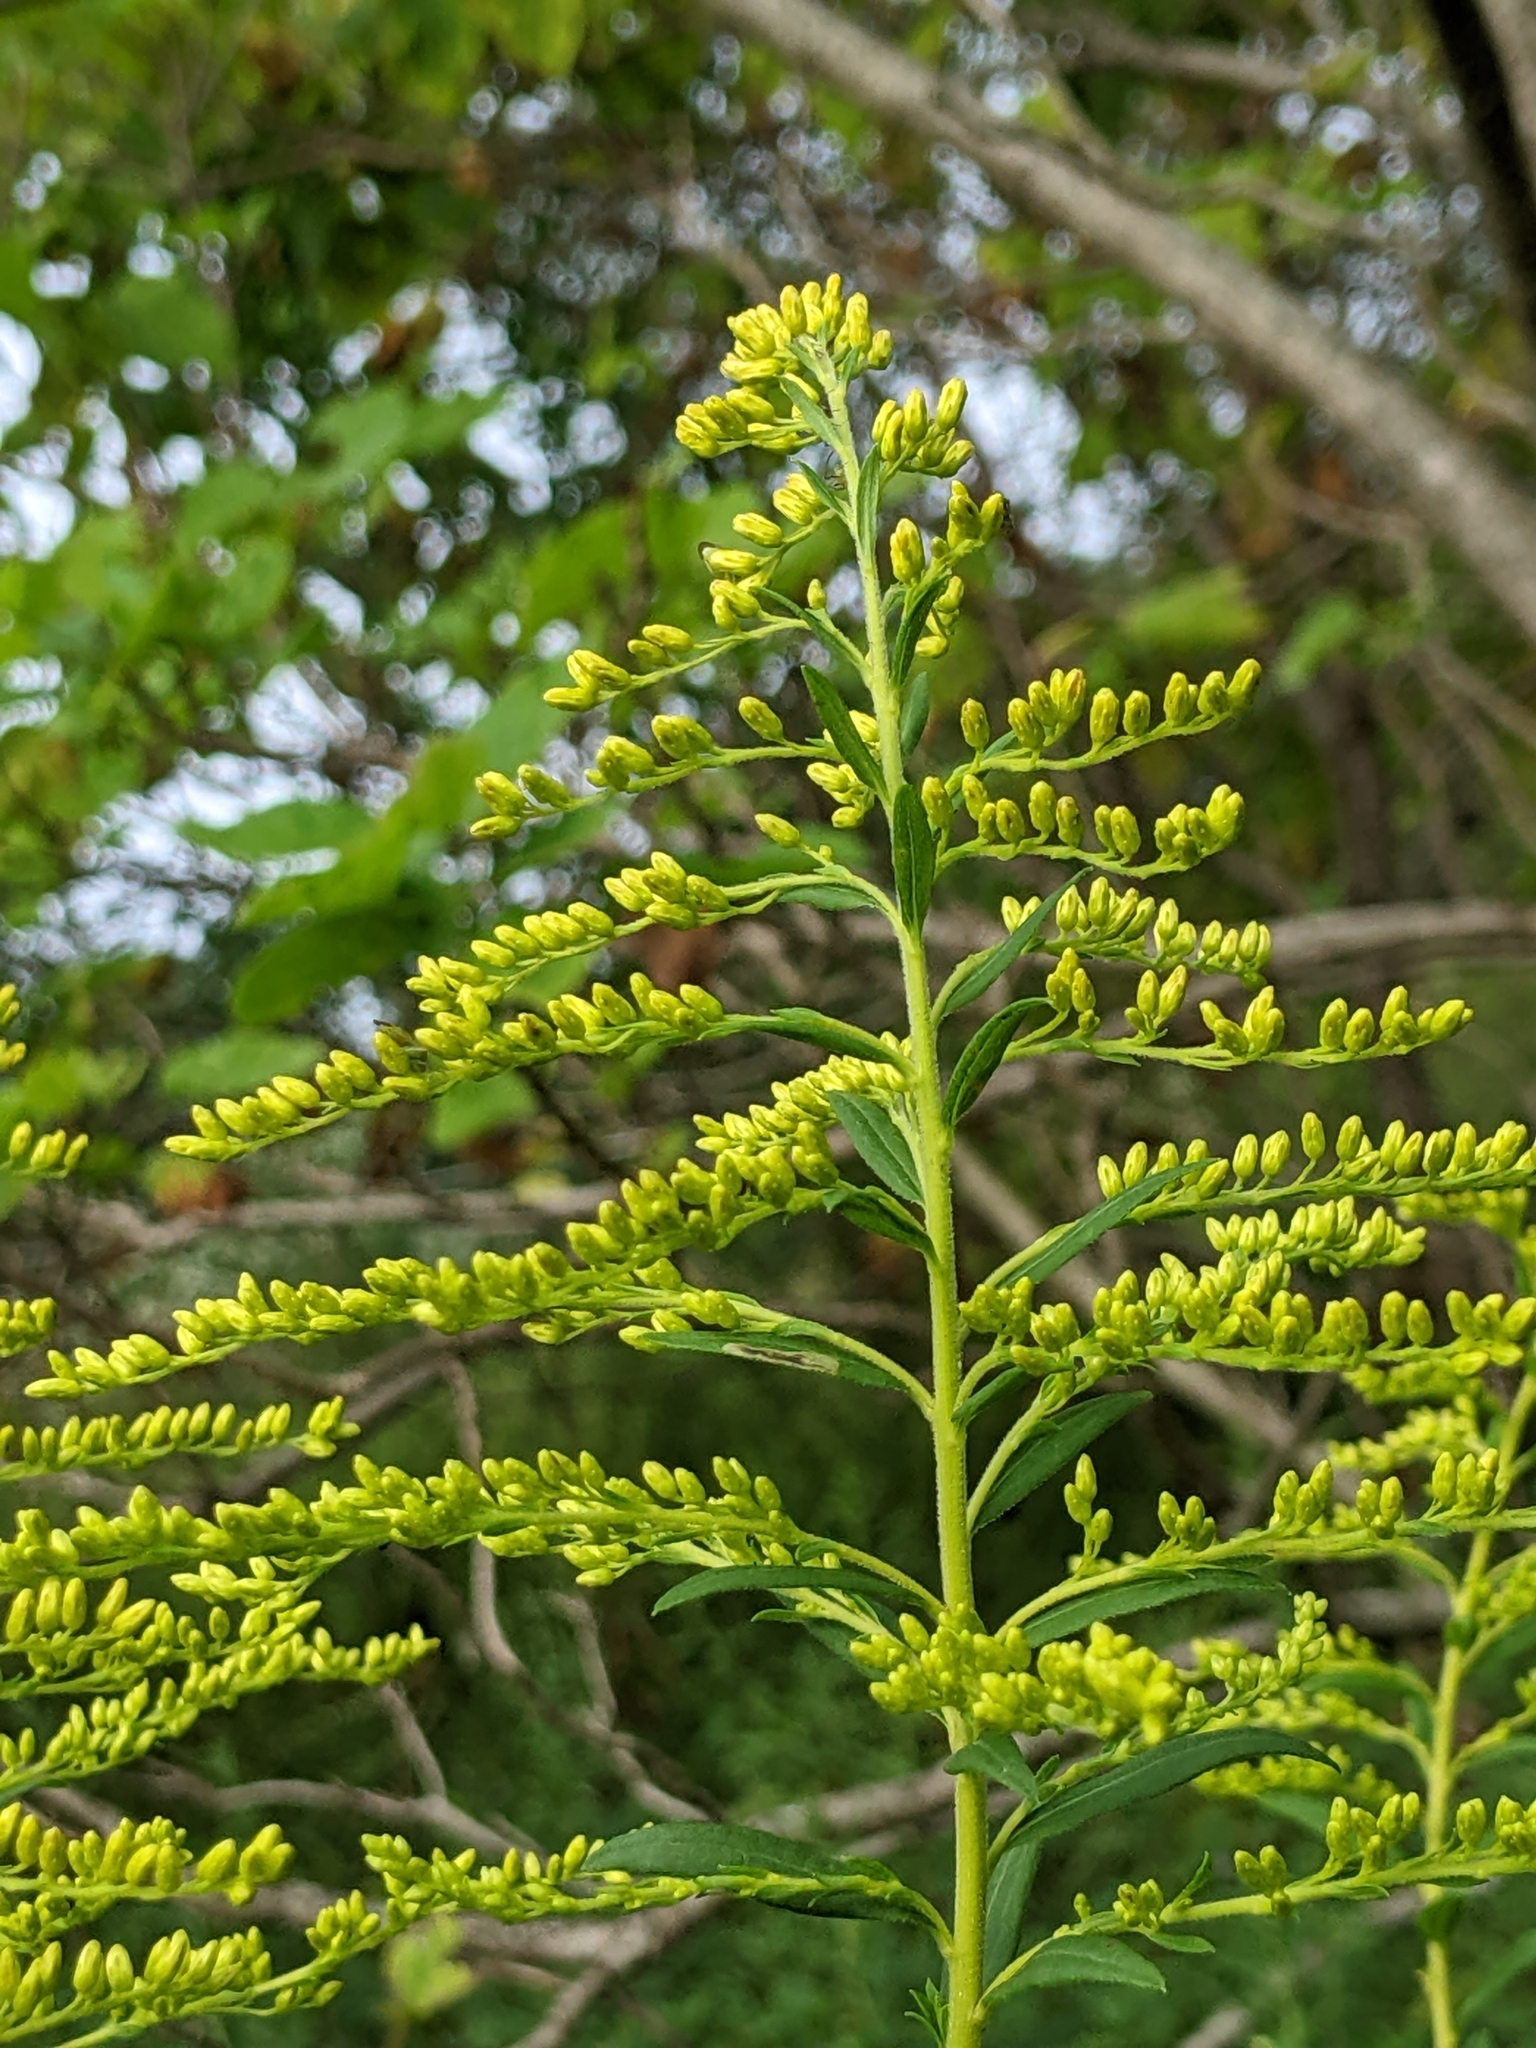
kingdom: Animalia
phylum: Arthropoda
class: Insecta
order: Diptera
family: Tephritidae
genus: Eurosta
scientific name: Eurosta solidaginis
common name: Goldenrod gall fly
